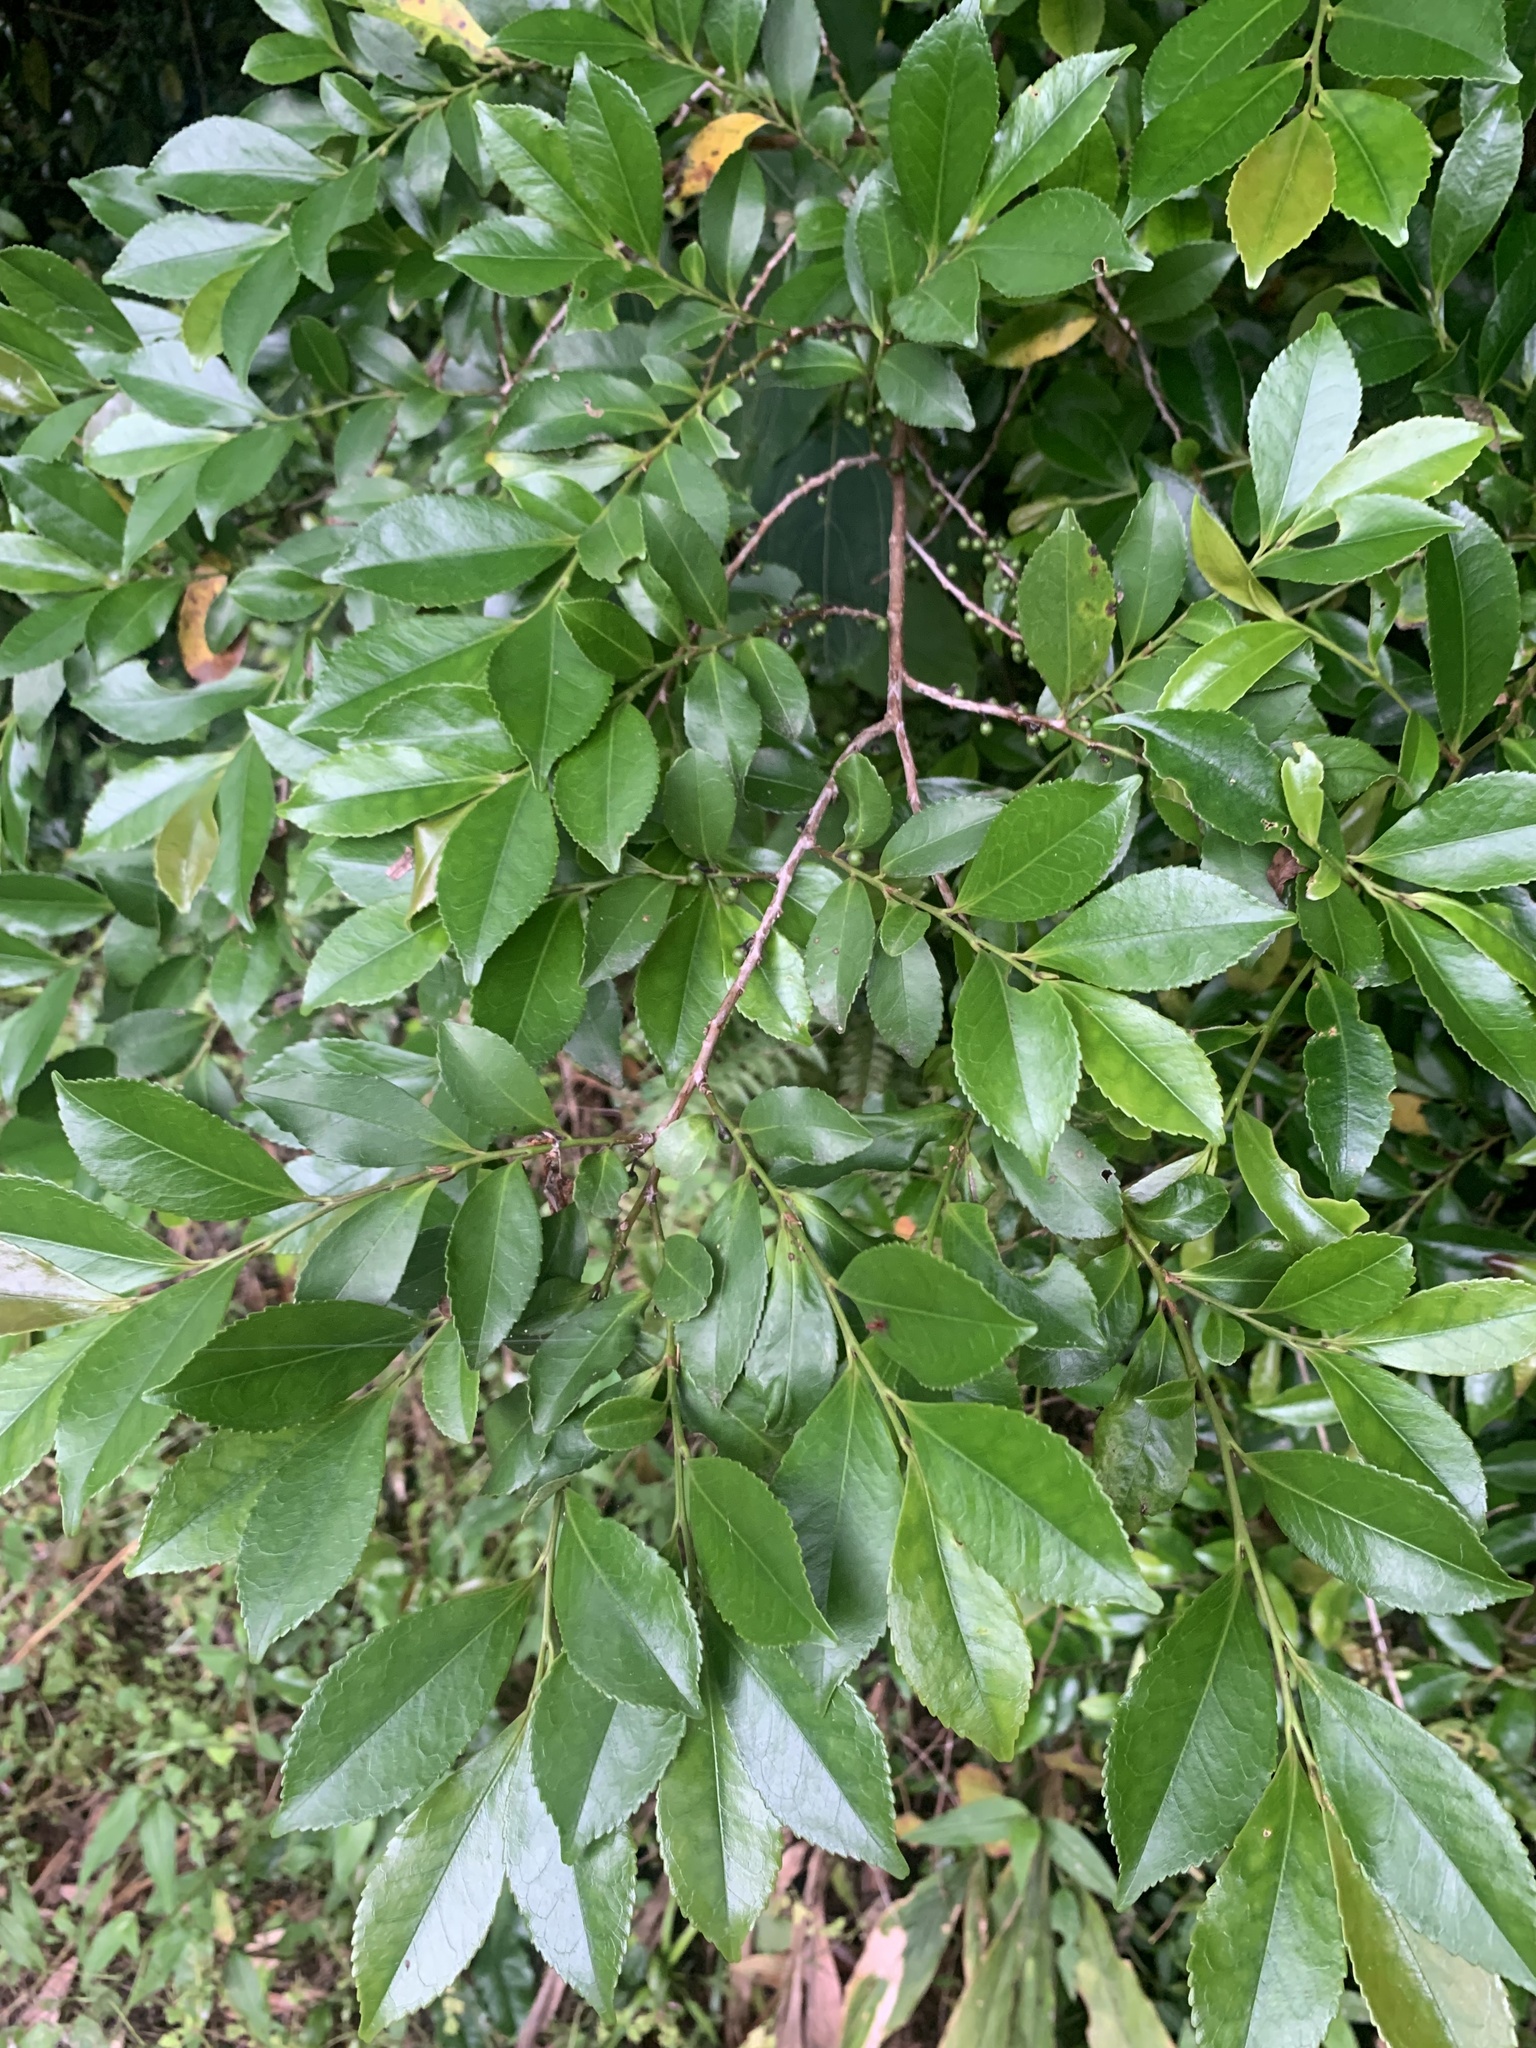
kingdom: Plantae
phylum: Tracheophyta
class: Magnoliopsida
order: Ericales
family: Pentaphylacaceae
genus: Eurya
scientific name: Eurya japonica
